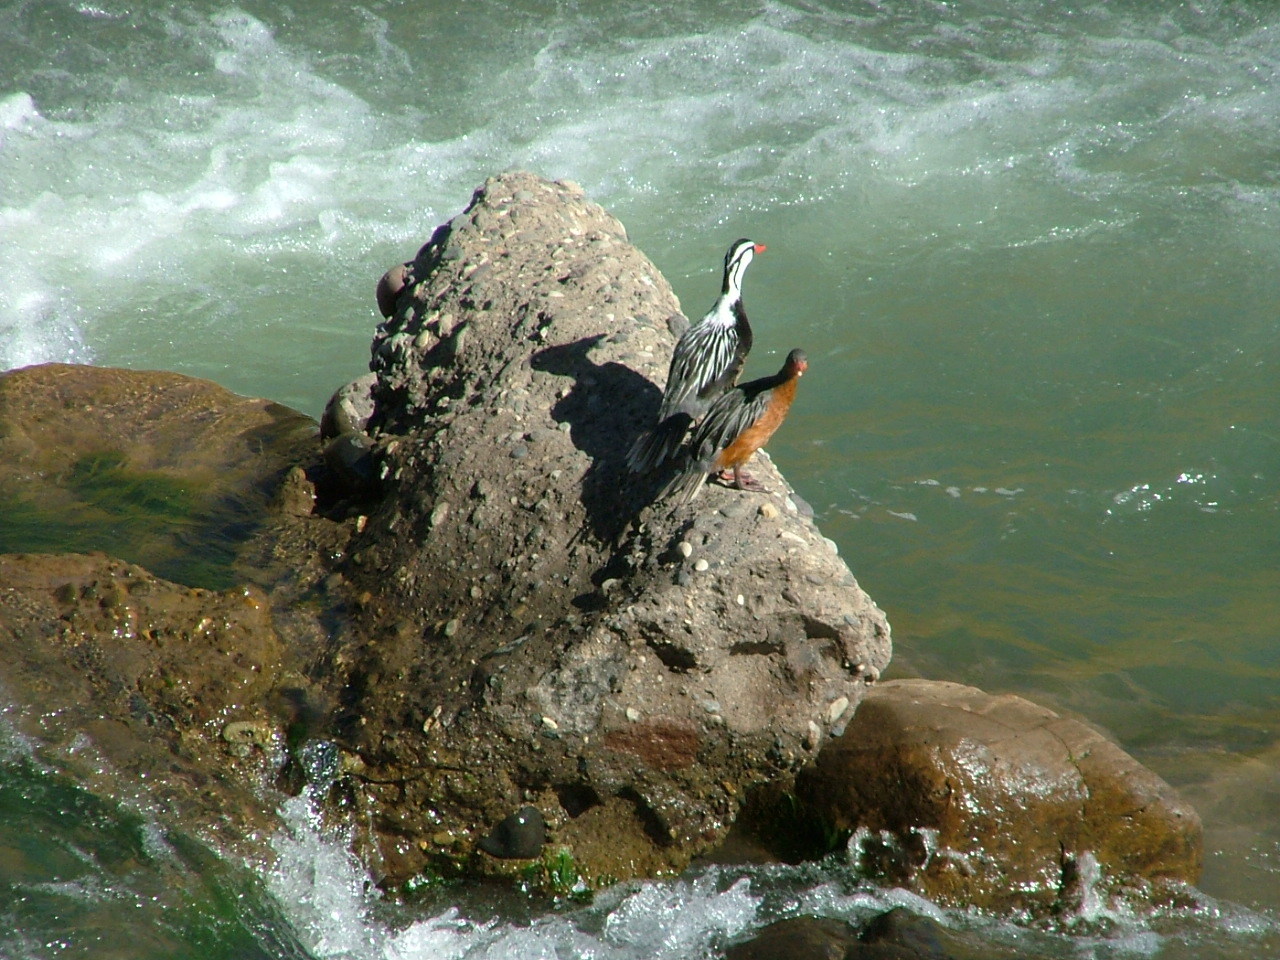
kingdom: Animalia
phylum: Chordata
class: Aves
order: Anseriformes
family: Anatidae
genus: Merganetta
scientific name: Merganetta armata
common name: Torrent duck
